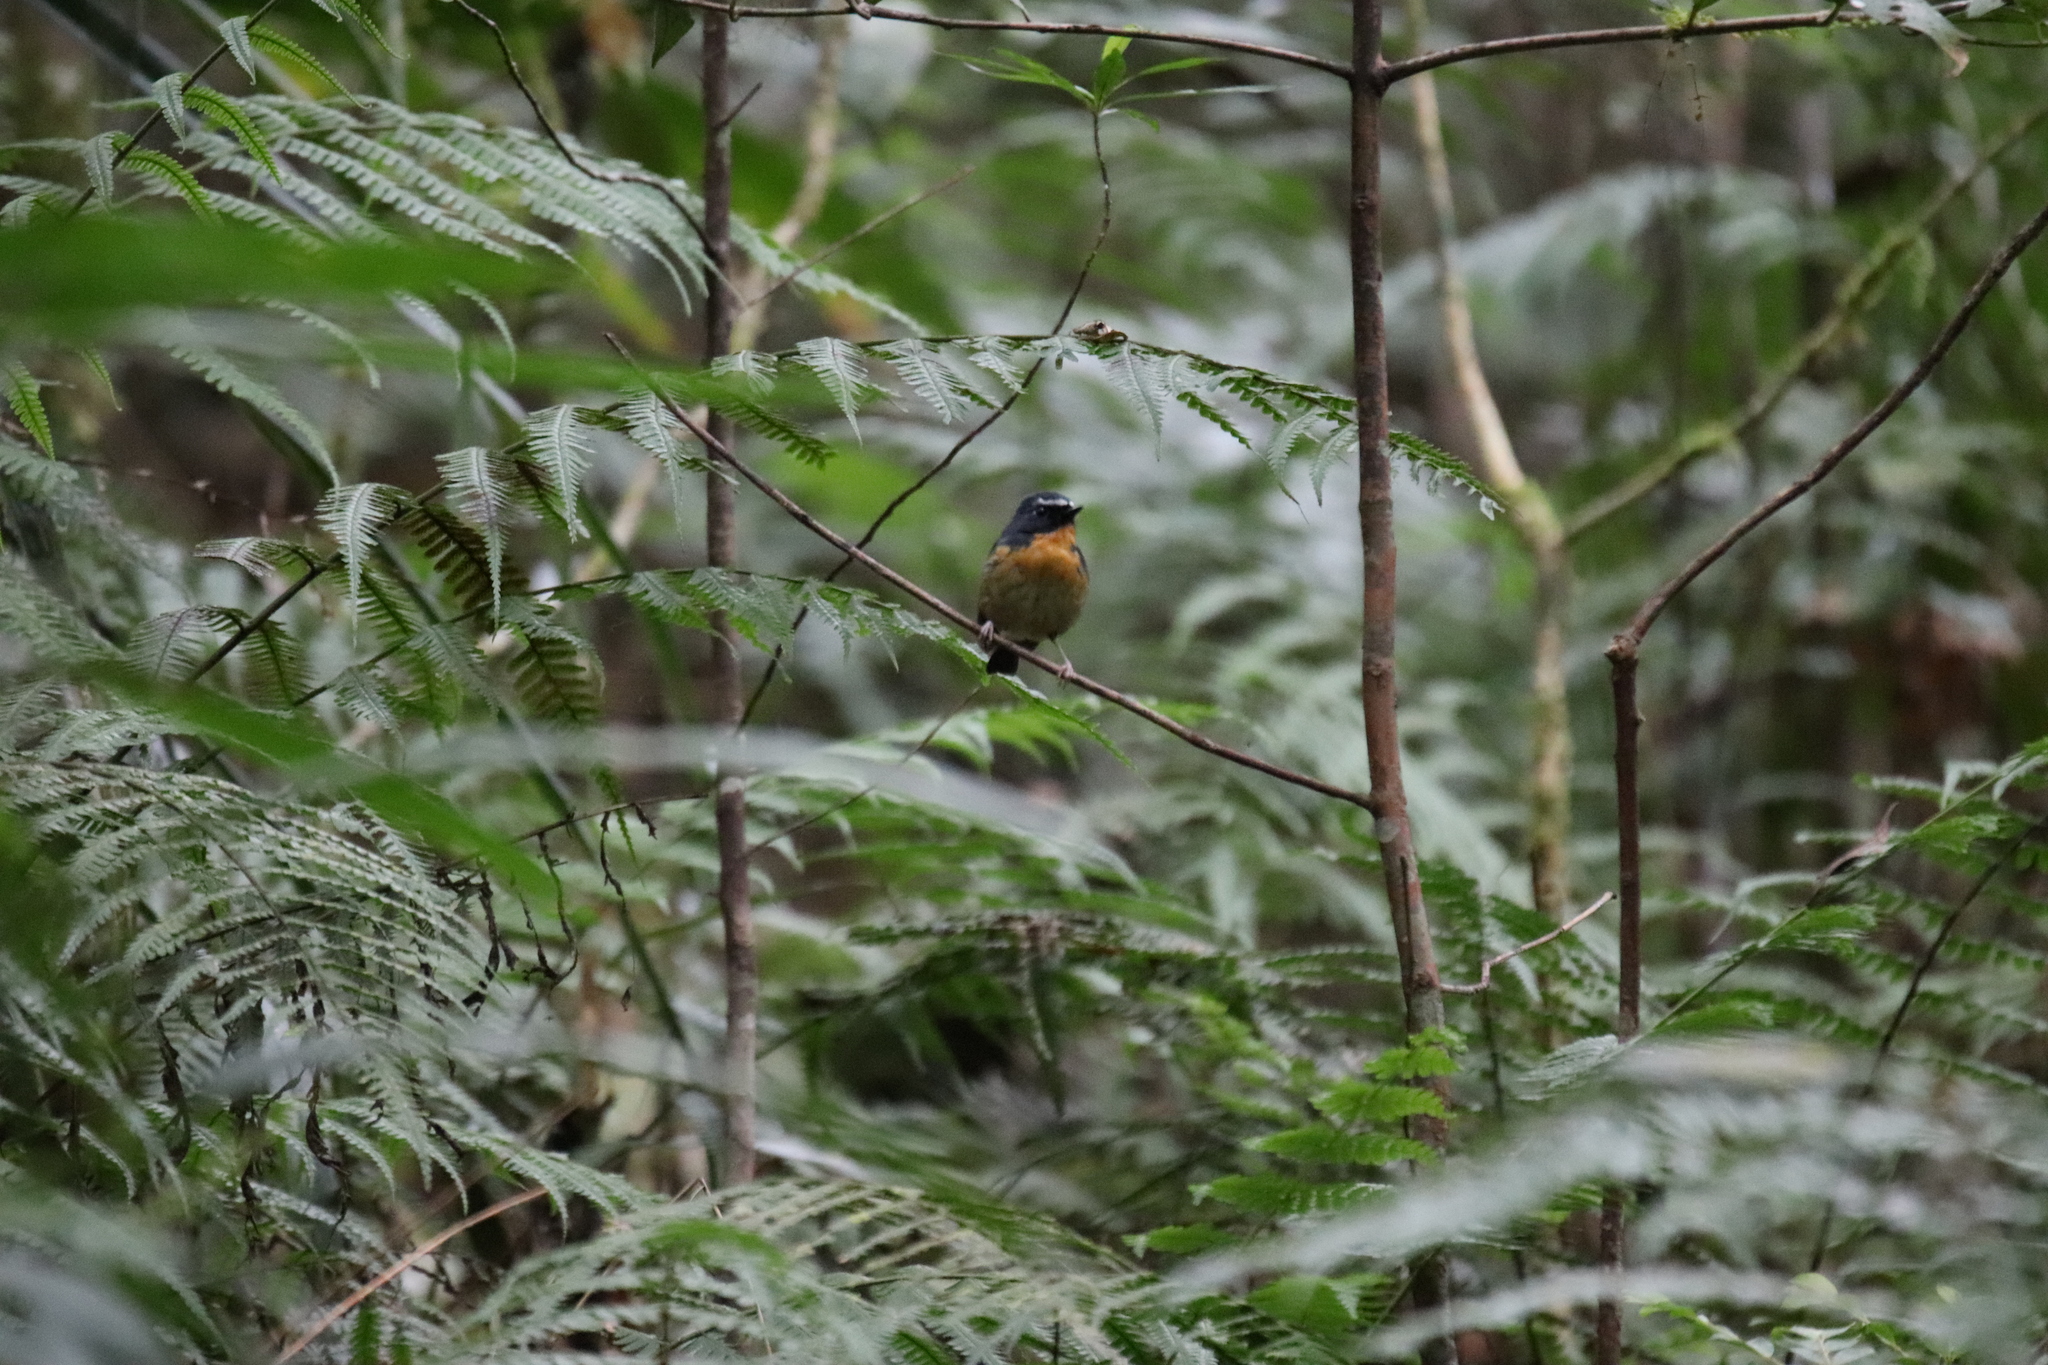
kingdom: Animalia
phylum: Chordata
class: Aves
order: Passeriformes
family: Muscicapidae
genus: Ficedula
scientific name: Ficedula hyperythra
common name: Snowy-browed flycatcher
